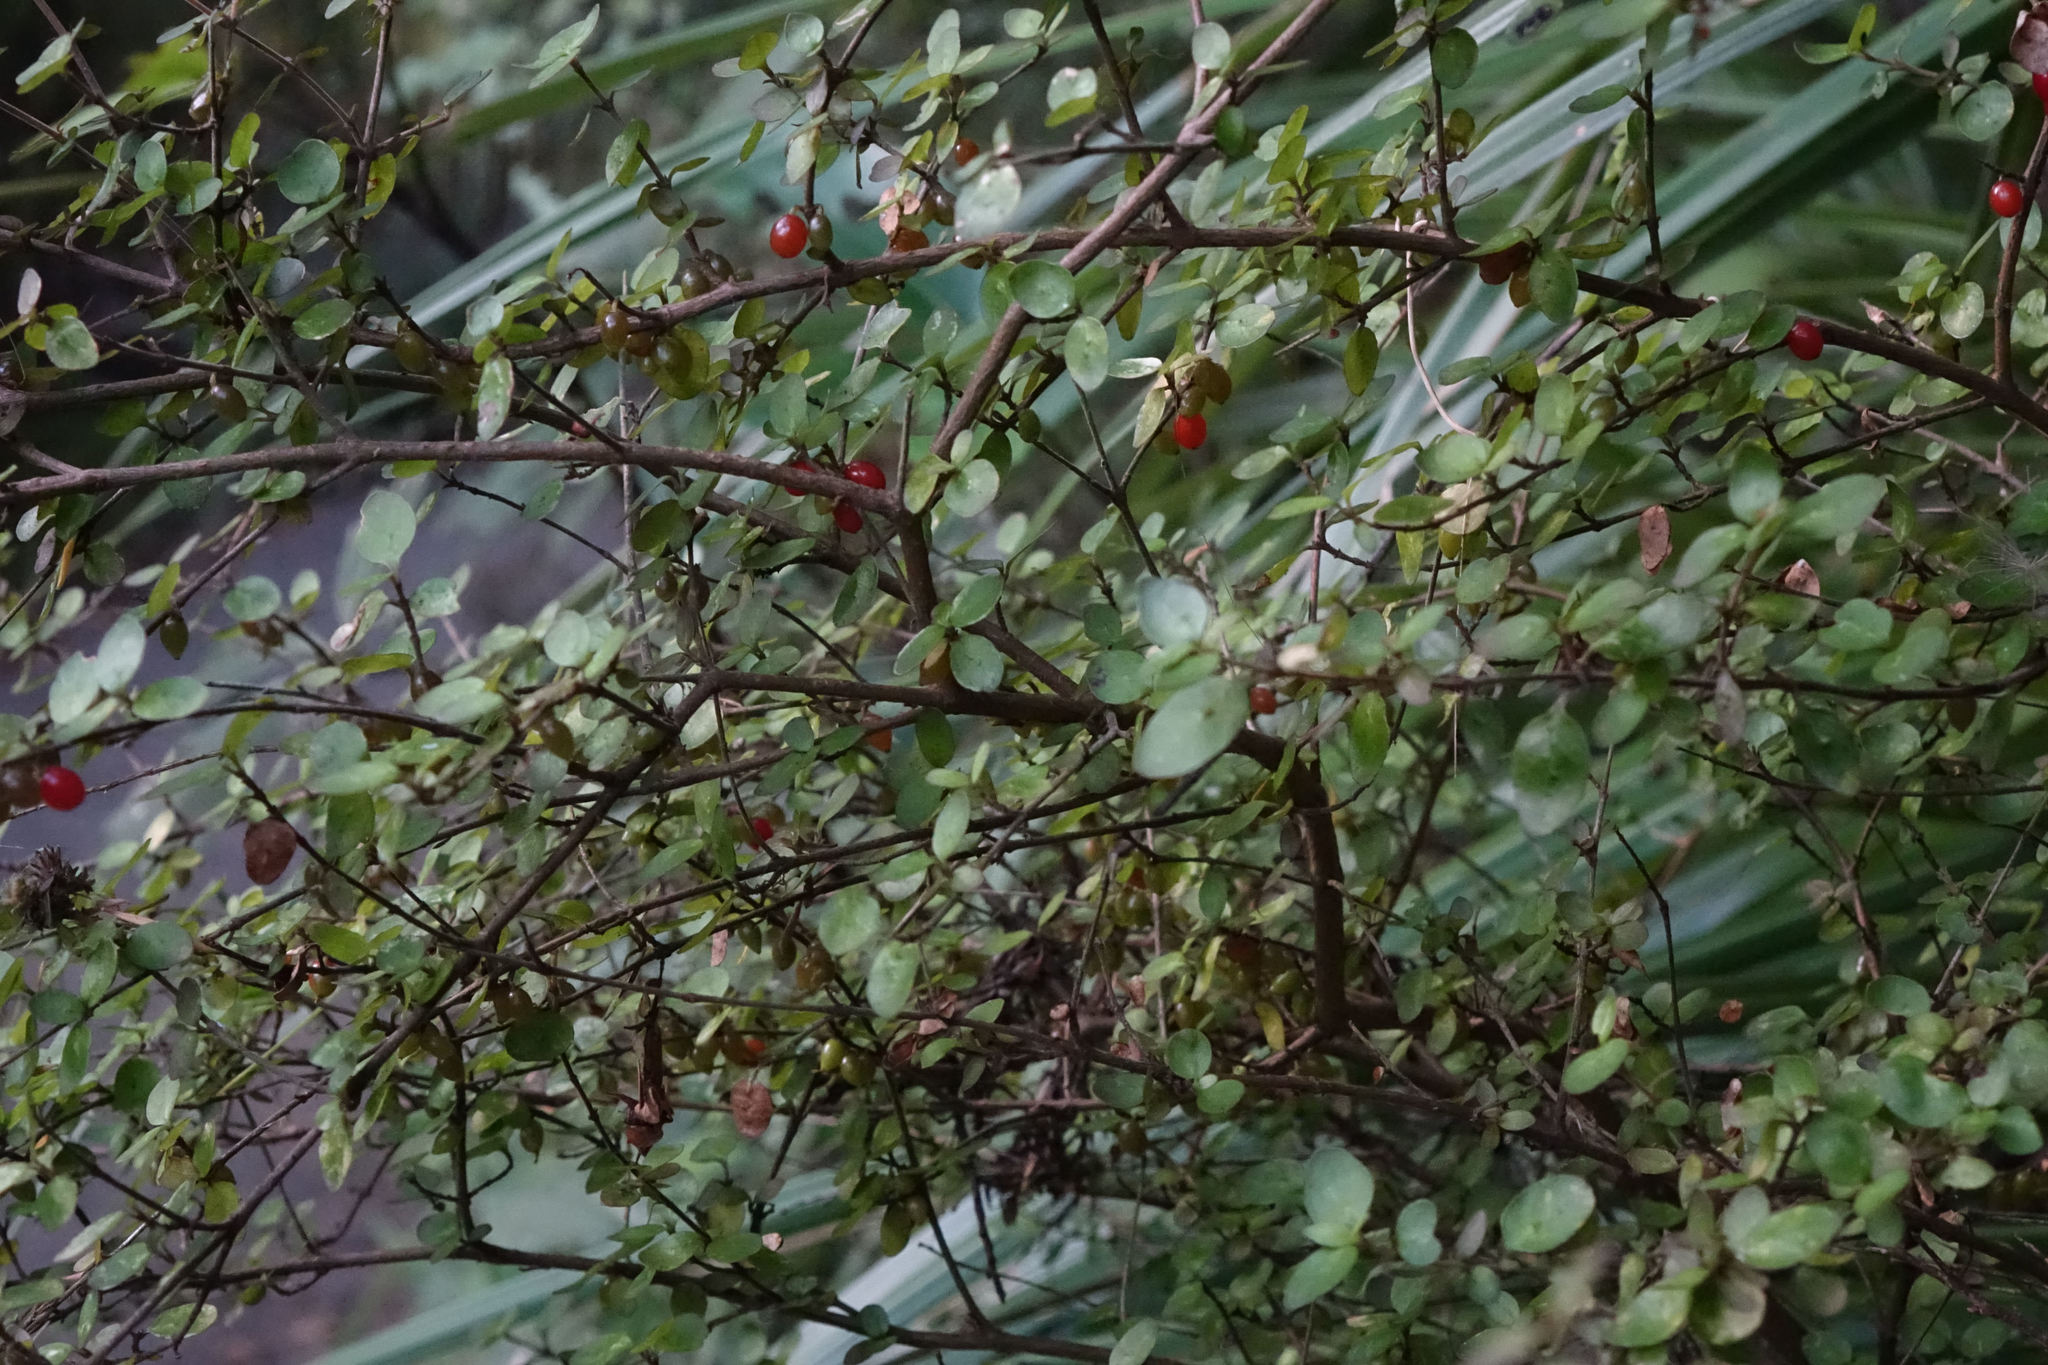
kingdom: Plantae
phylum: Tracheophyta
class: Magnoliopsida
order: Gentianales
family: Rubiaceae
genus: Coprosma
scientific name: Coprosma rhamnoides
